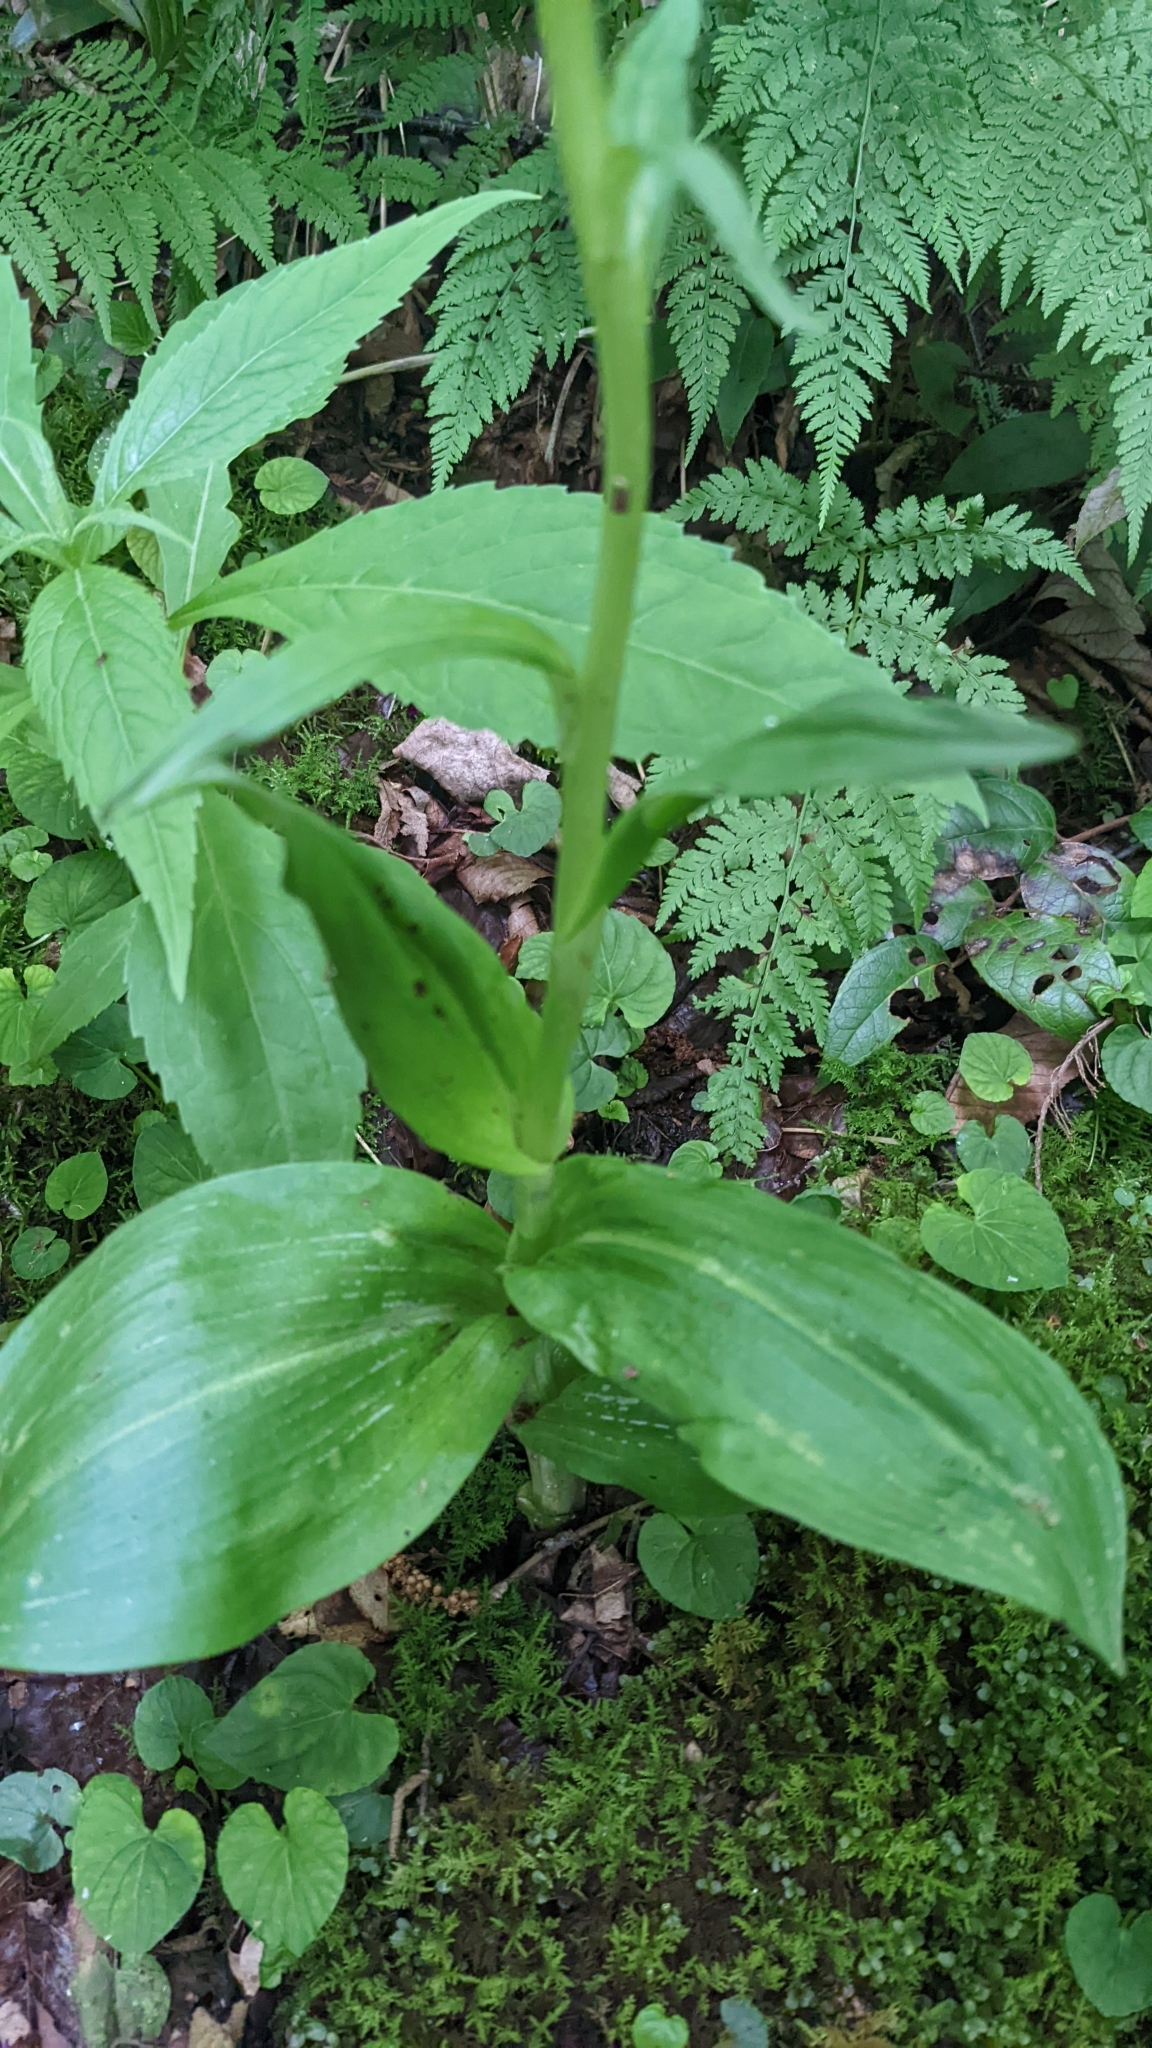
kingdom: Plantae
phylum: Tracheophyta
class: Liliopsida
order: Asparagales
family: Orchidaceae
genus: Platanthera
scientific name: Platanthera psycodes
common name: Lesser purple fringed orchid
